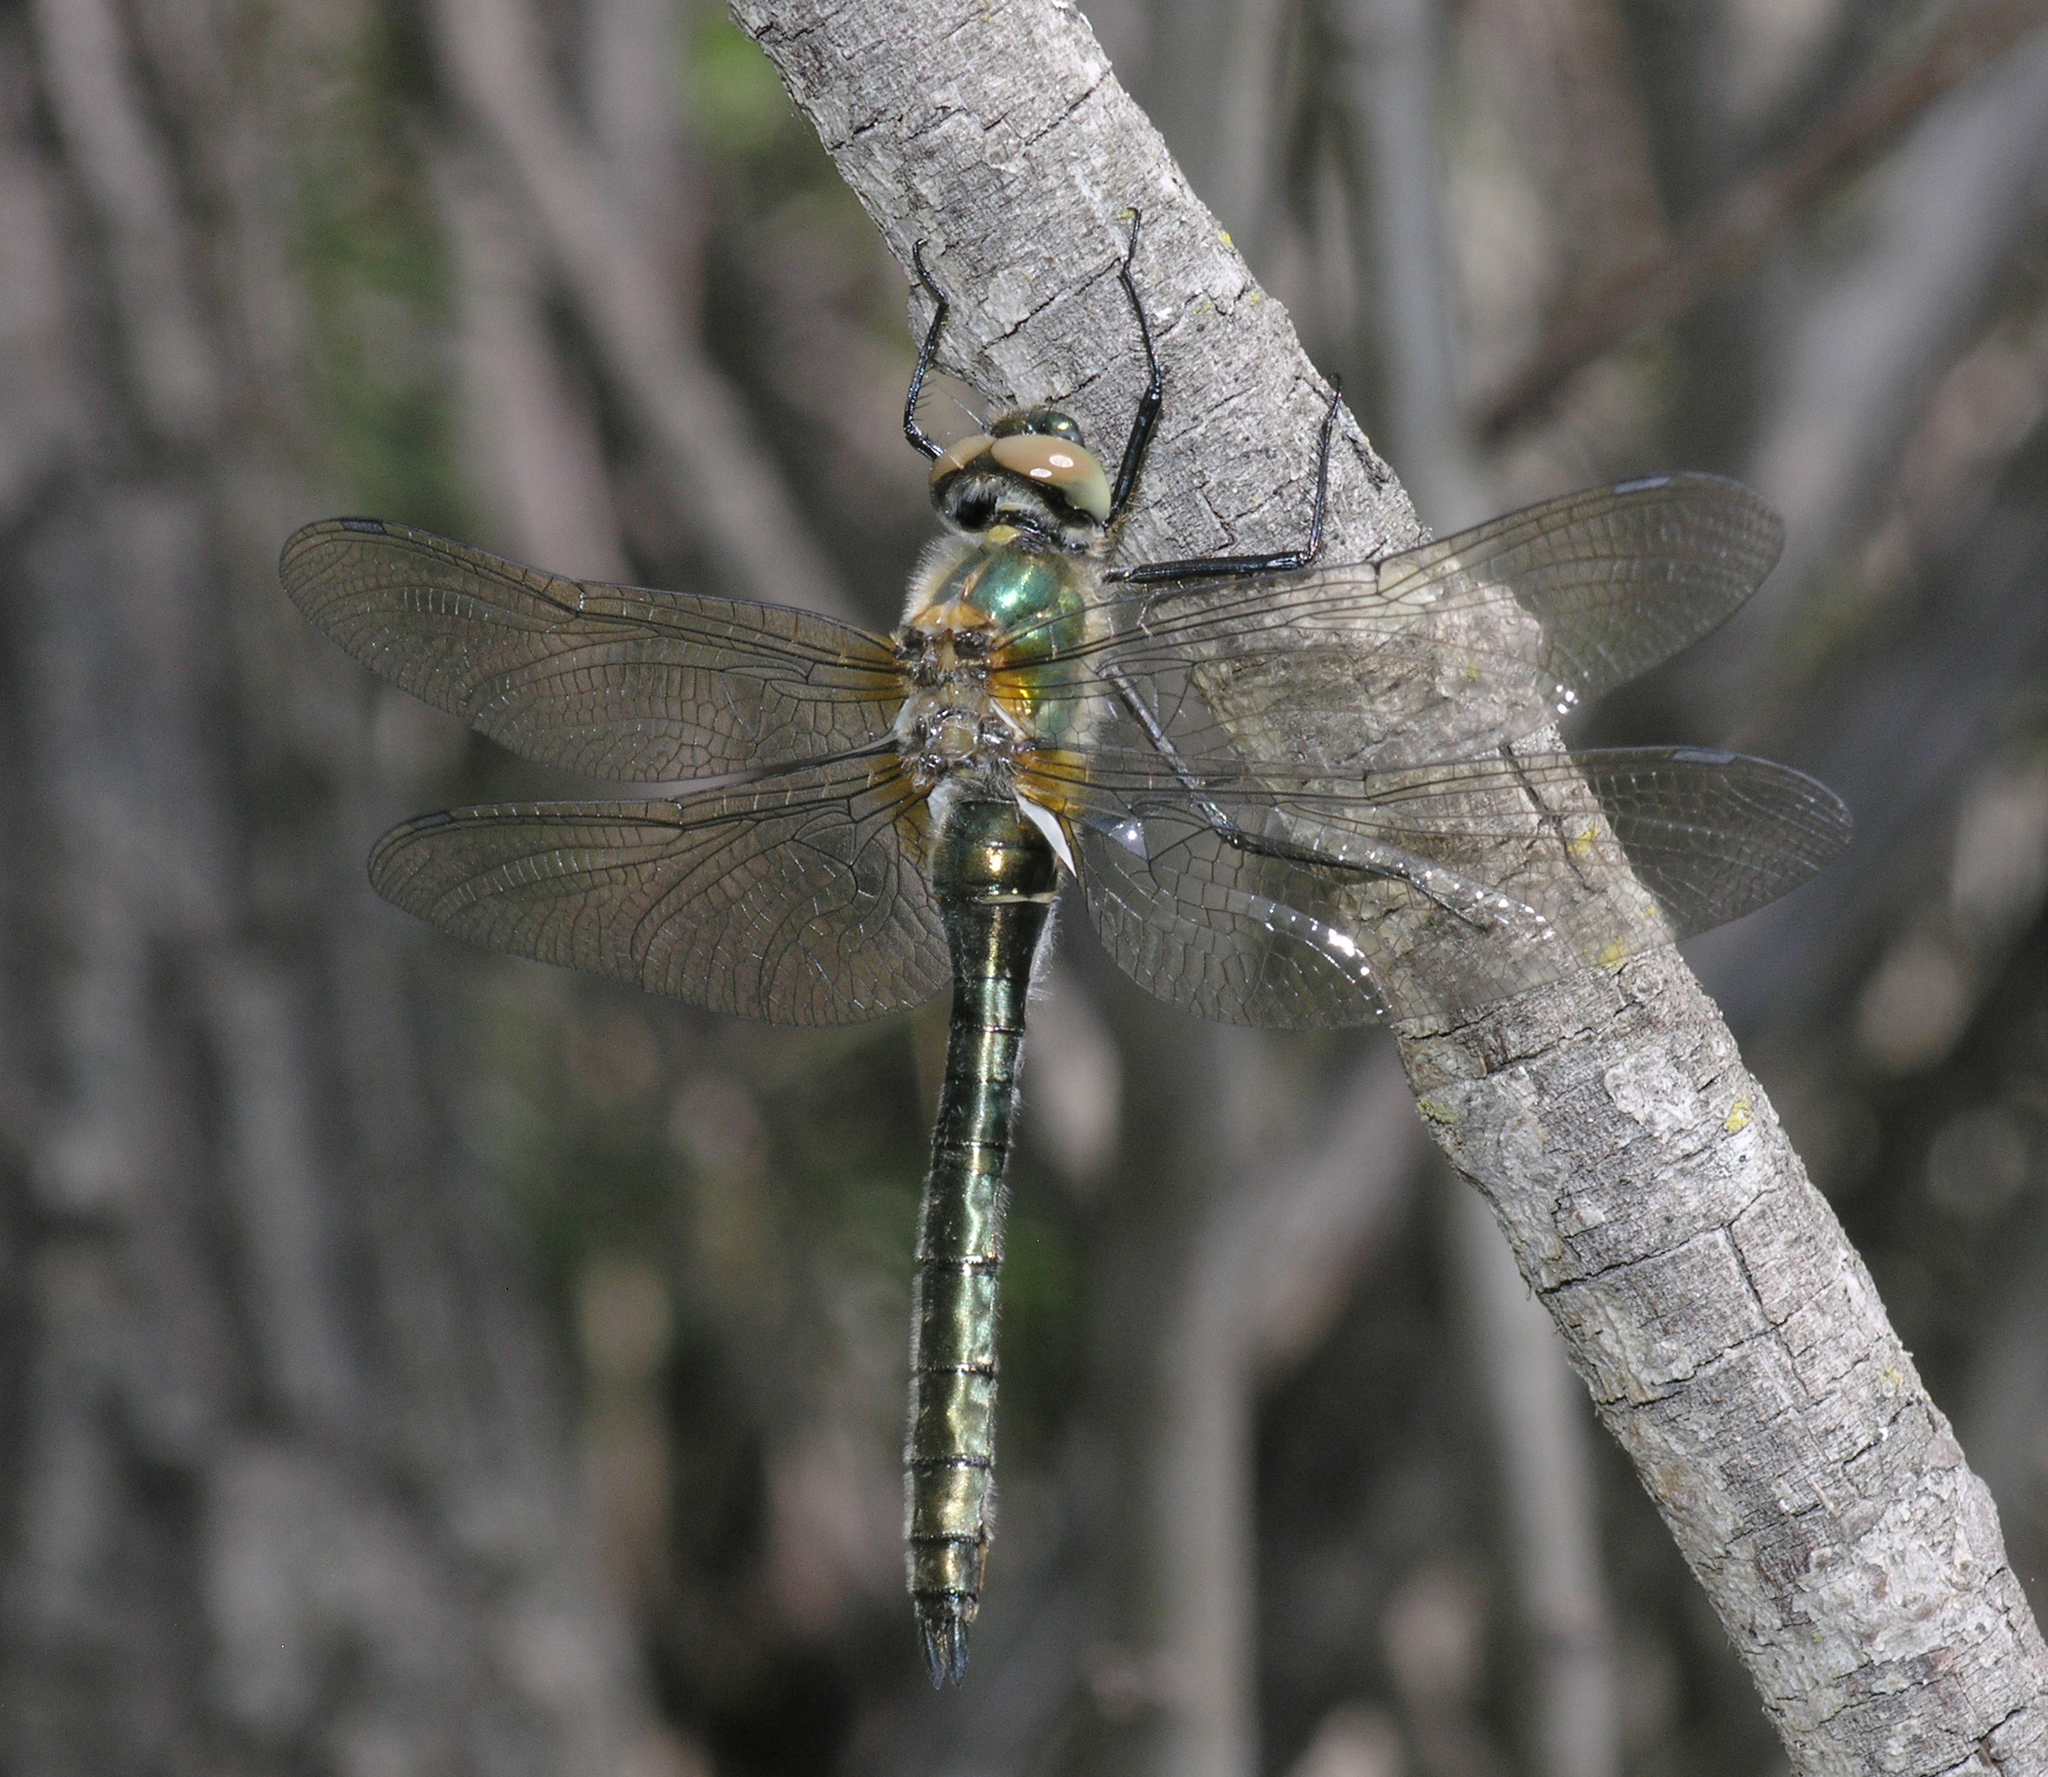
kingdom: Animalia
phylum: Arthropoda
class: Insecta
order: Odonata
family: Corduliidae
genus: Cordulia
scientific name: Cordulia aenea
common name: Downy emerald
